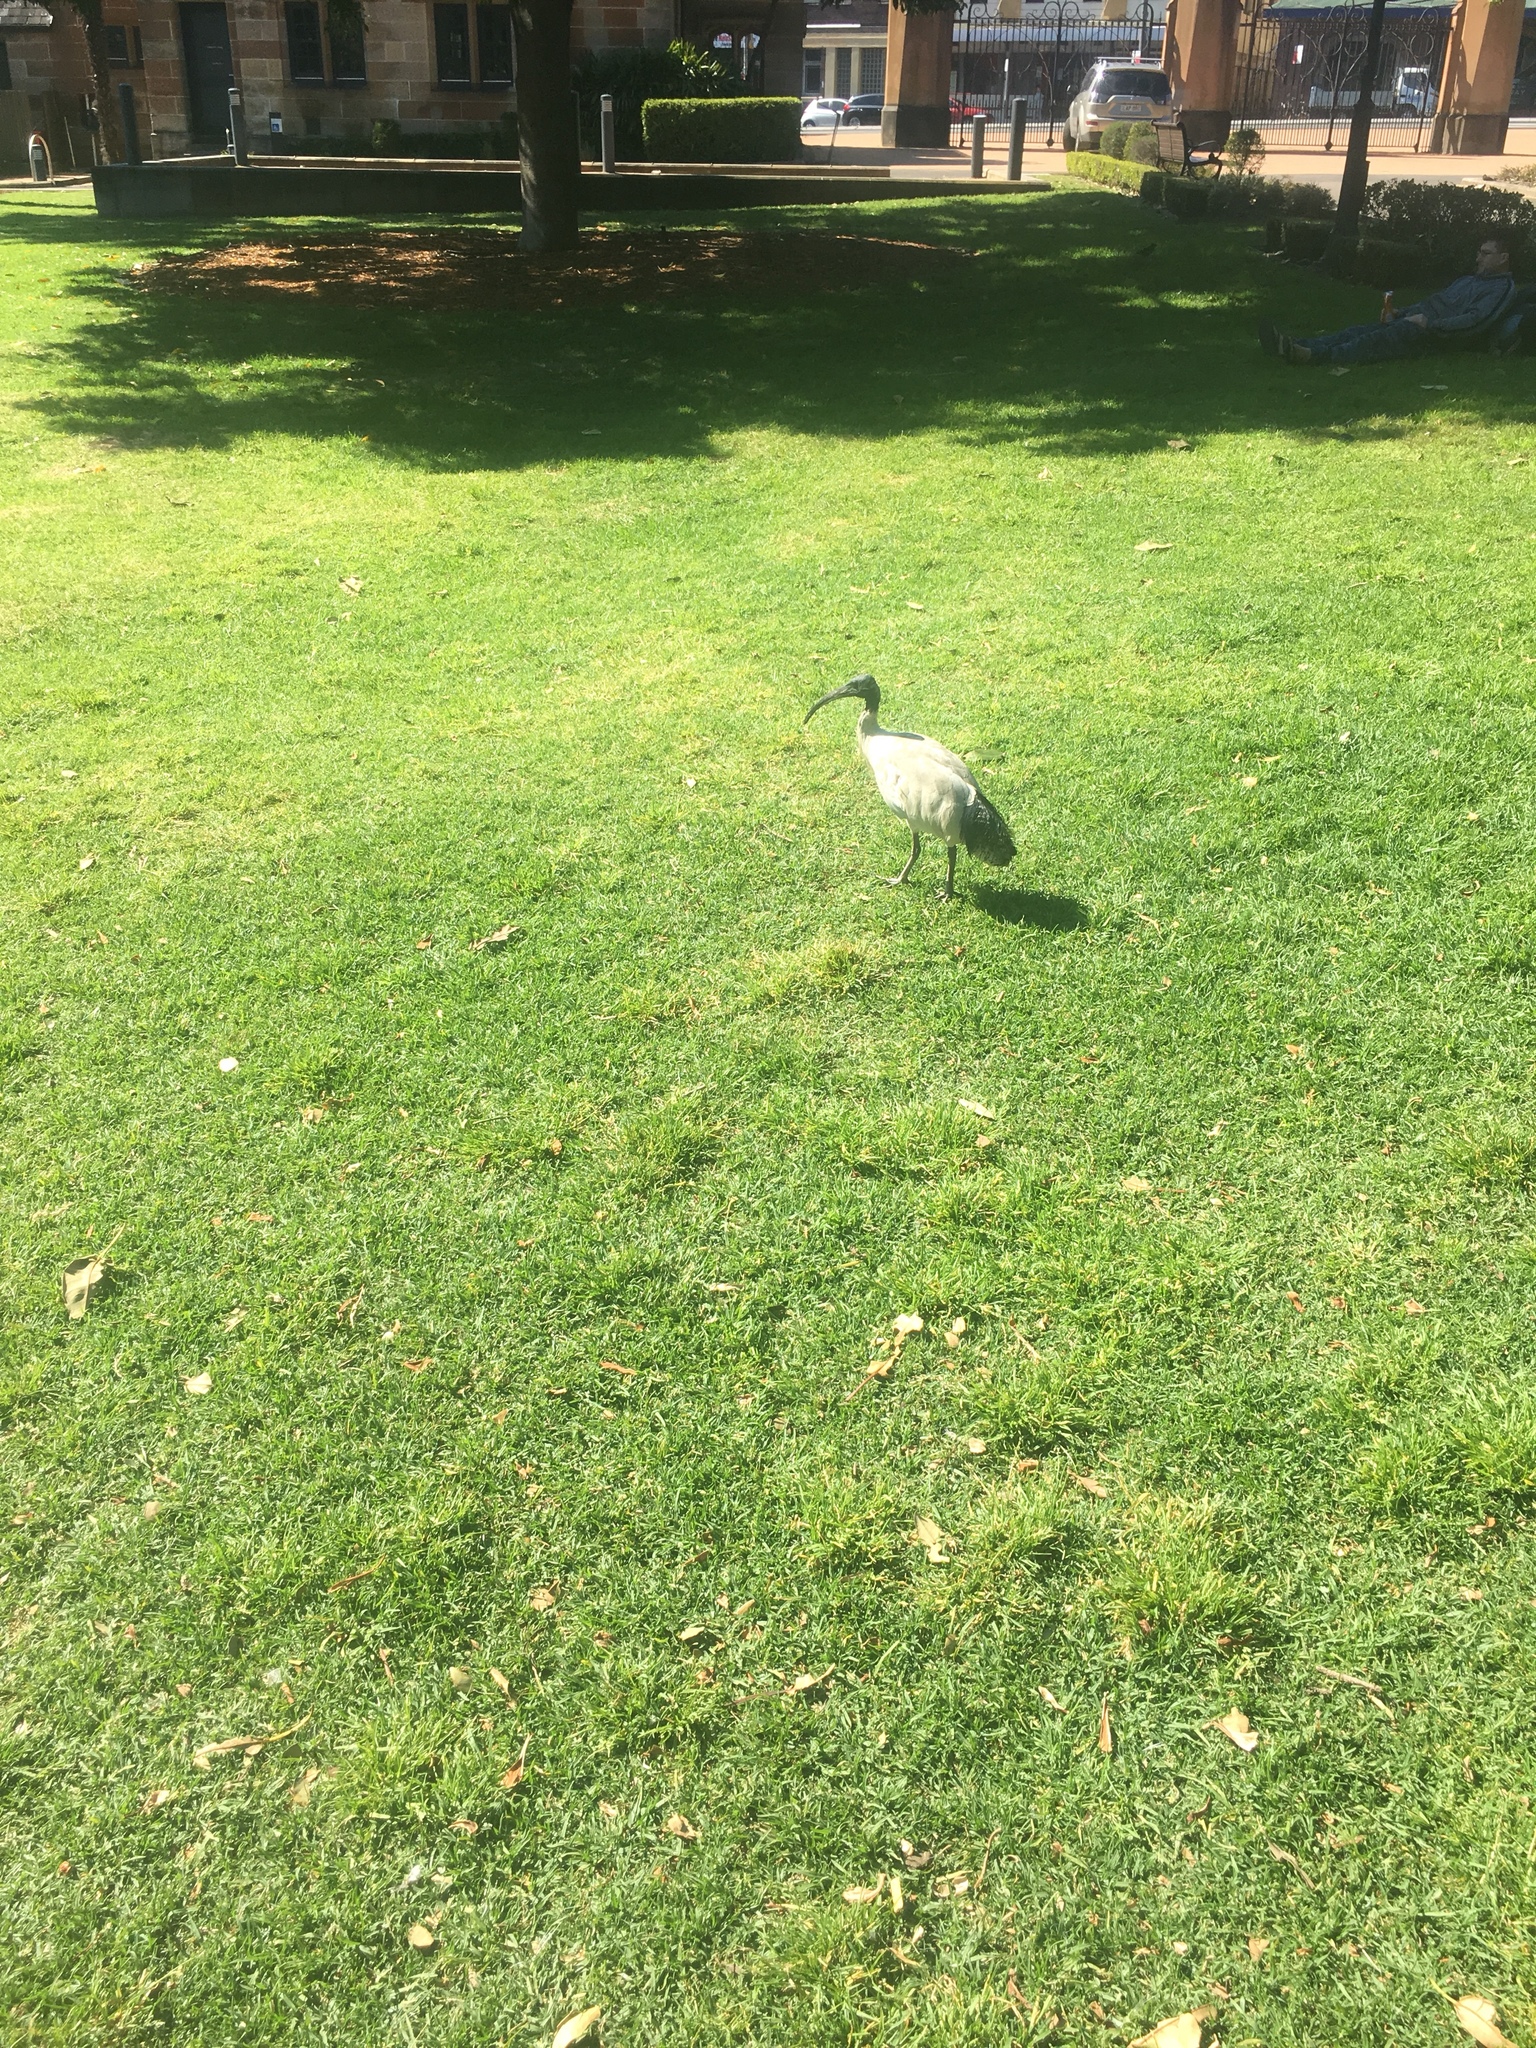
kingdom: Animalia
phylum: Chordata
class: Aves
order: Pelecaniformes
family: Threskiornithidae
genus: Threskiornis
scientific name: Threskiornis molucca
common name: Australian white ibis
